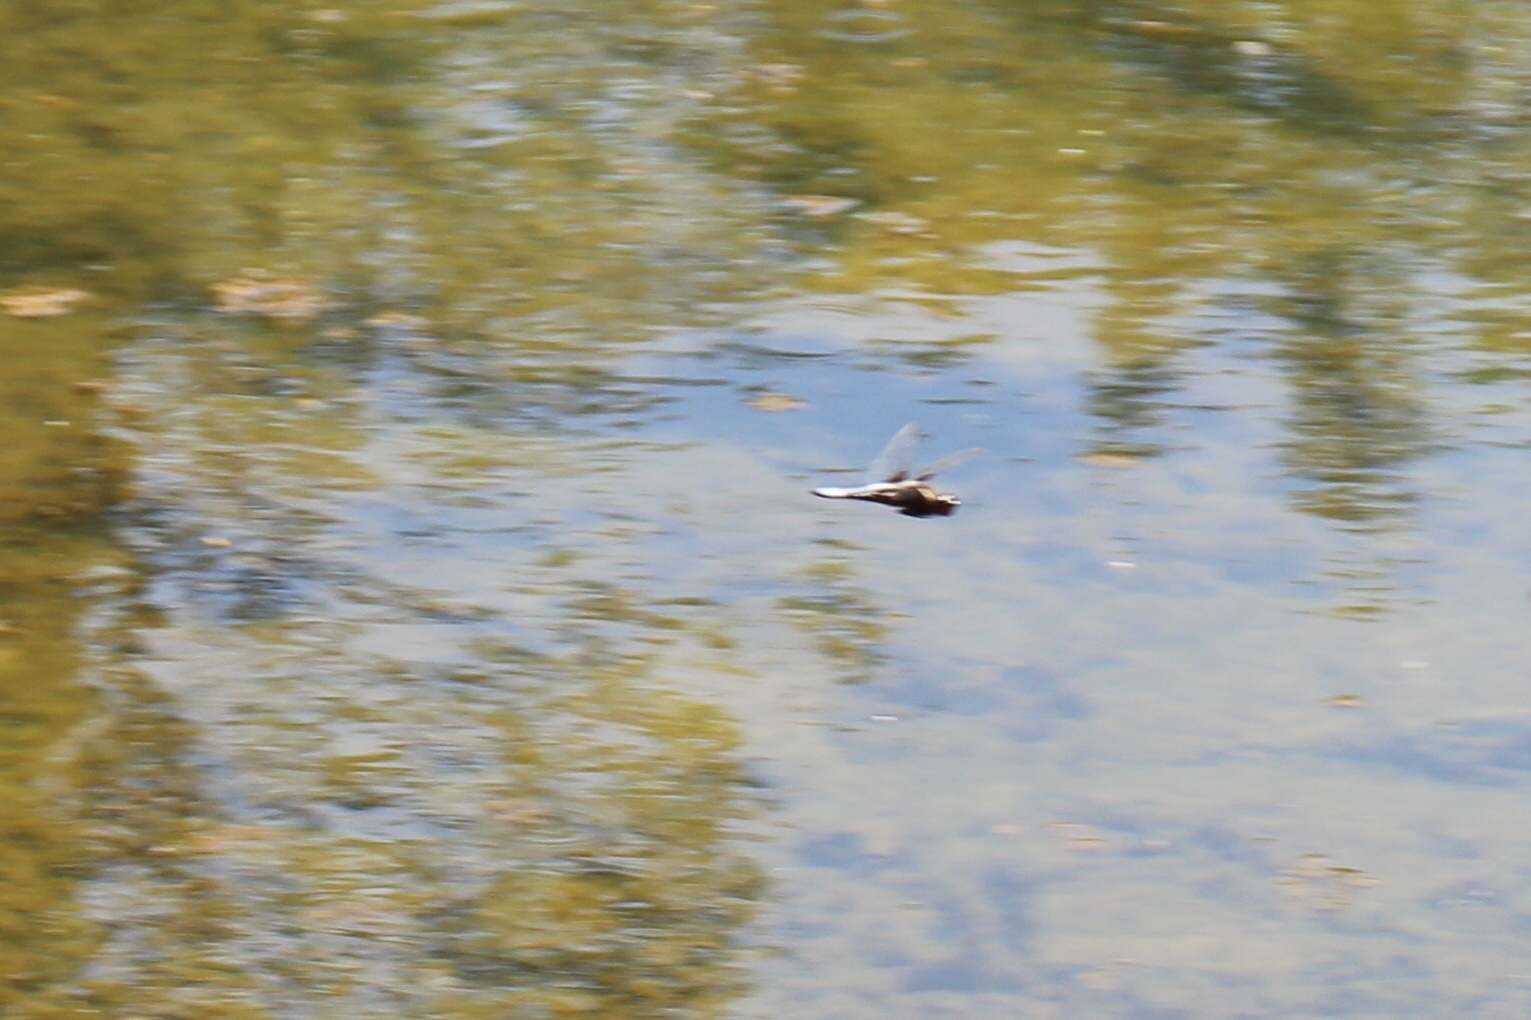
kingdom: Animalia
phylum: Arthropoda
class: Insecta
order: Odonata
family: Libellulidae
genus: Libellula
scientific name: Libellula depressa
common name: Broad-bodied chaser
